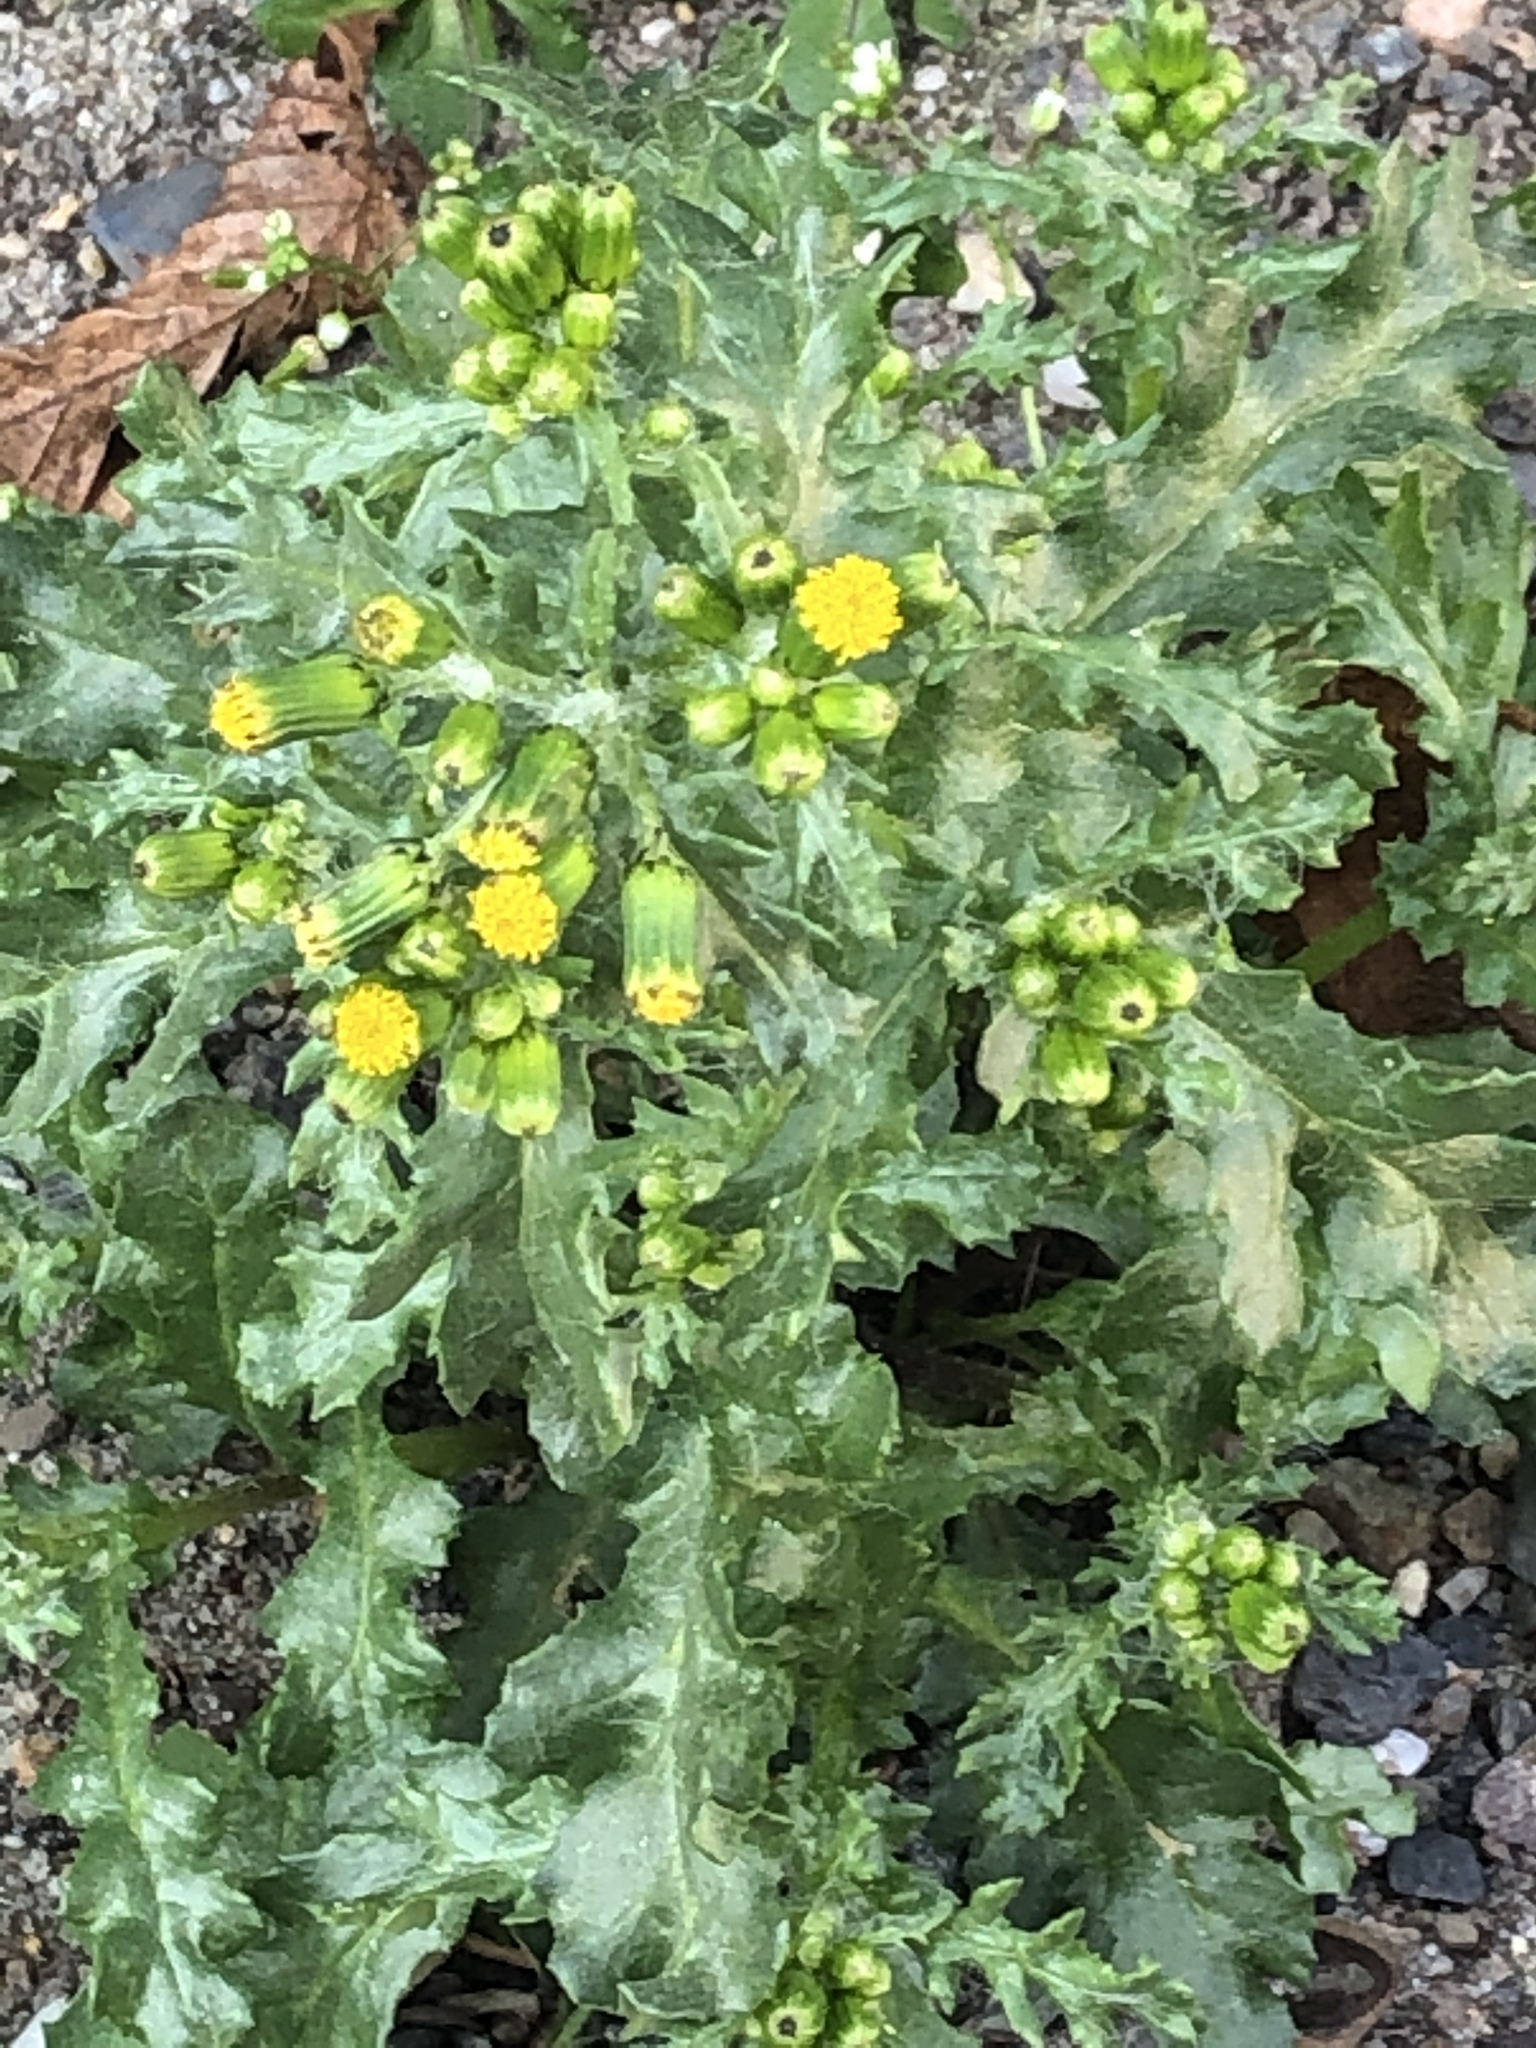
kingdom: Plantae
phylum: Tracheophyta
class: Magnoliopsida
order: Asterales
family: Asteraceae
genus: Senecio
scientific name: Senecio vulgaris
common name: Old-man-in-the-spring
